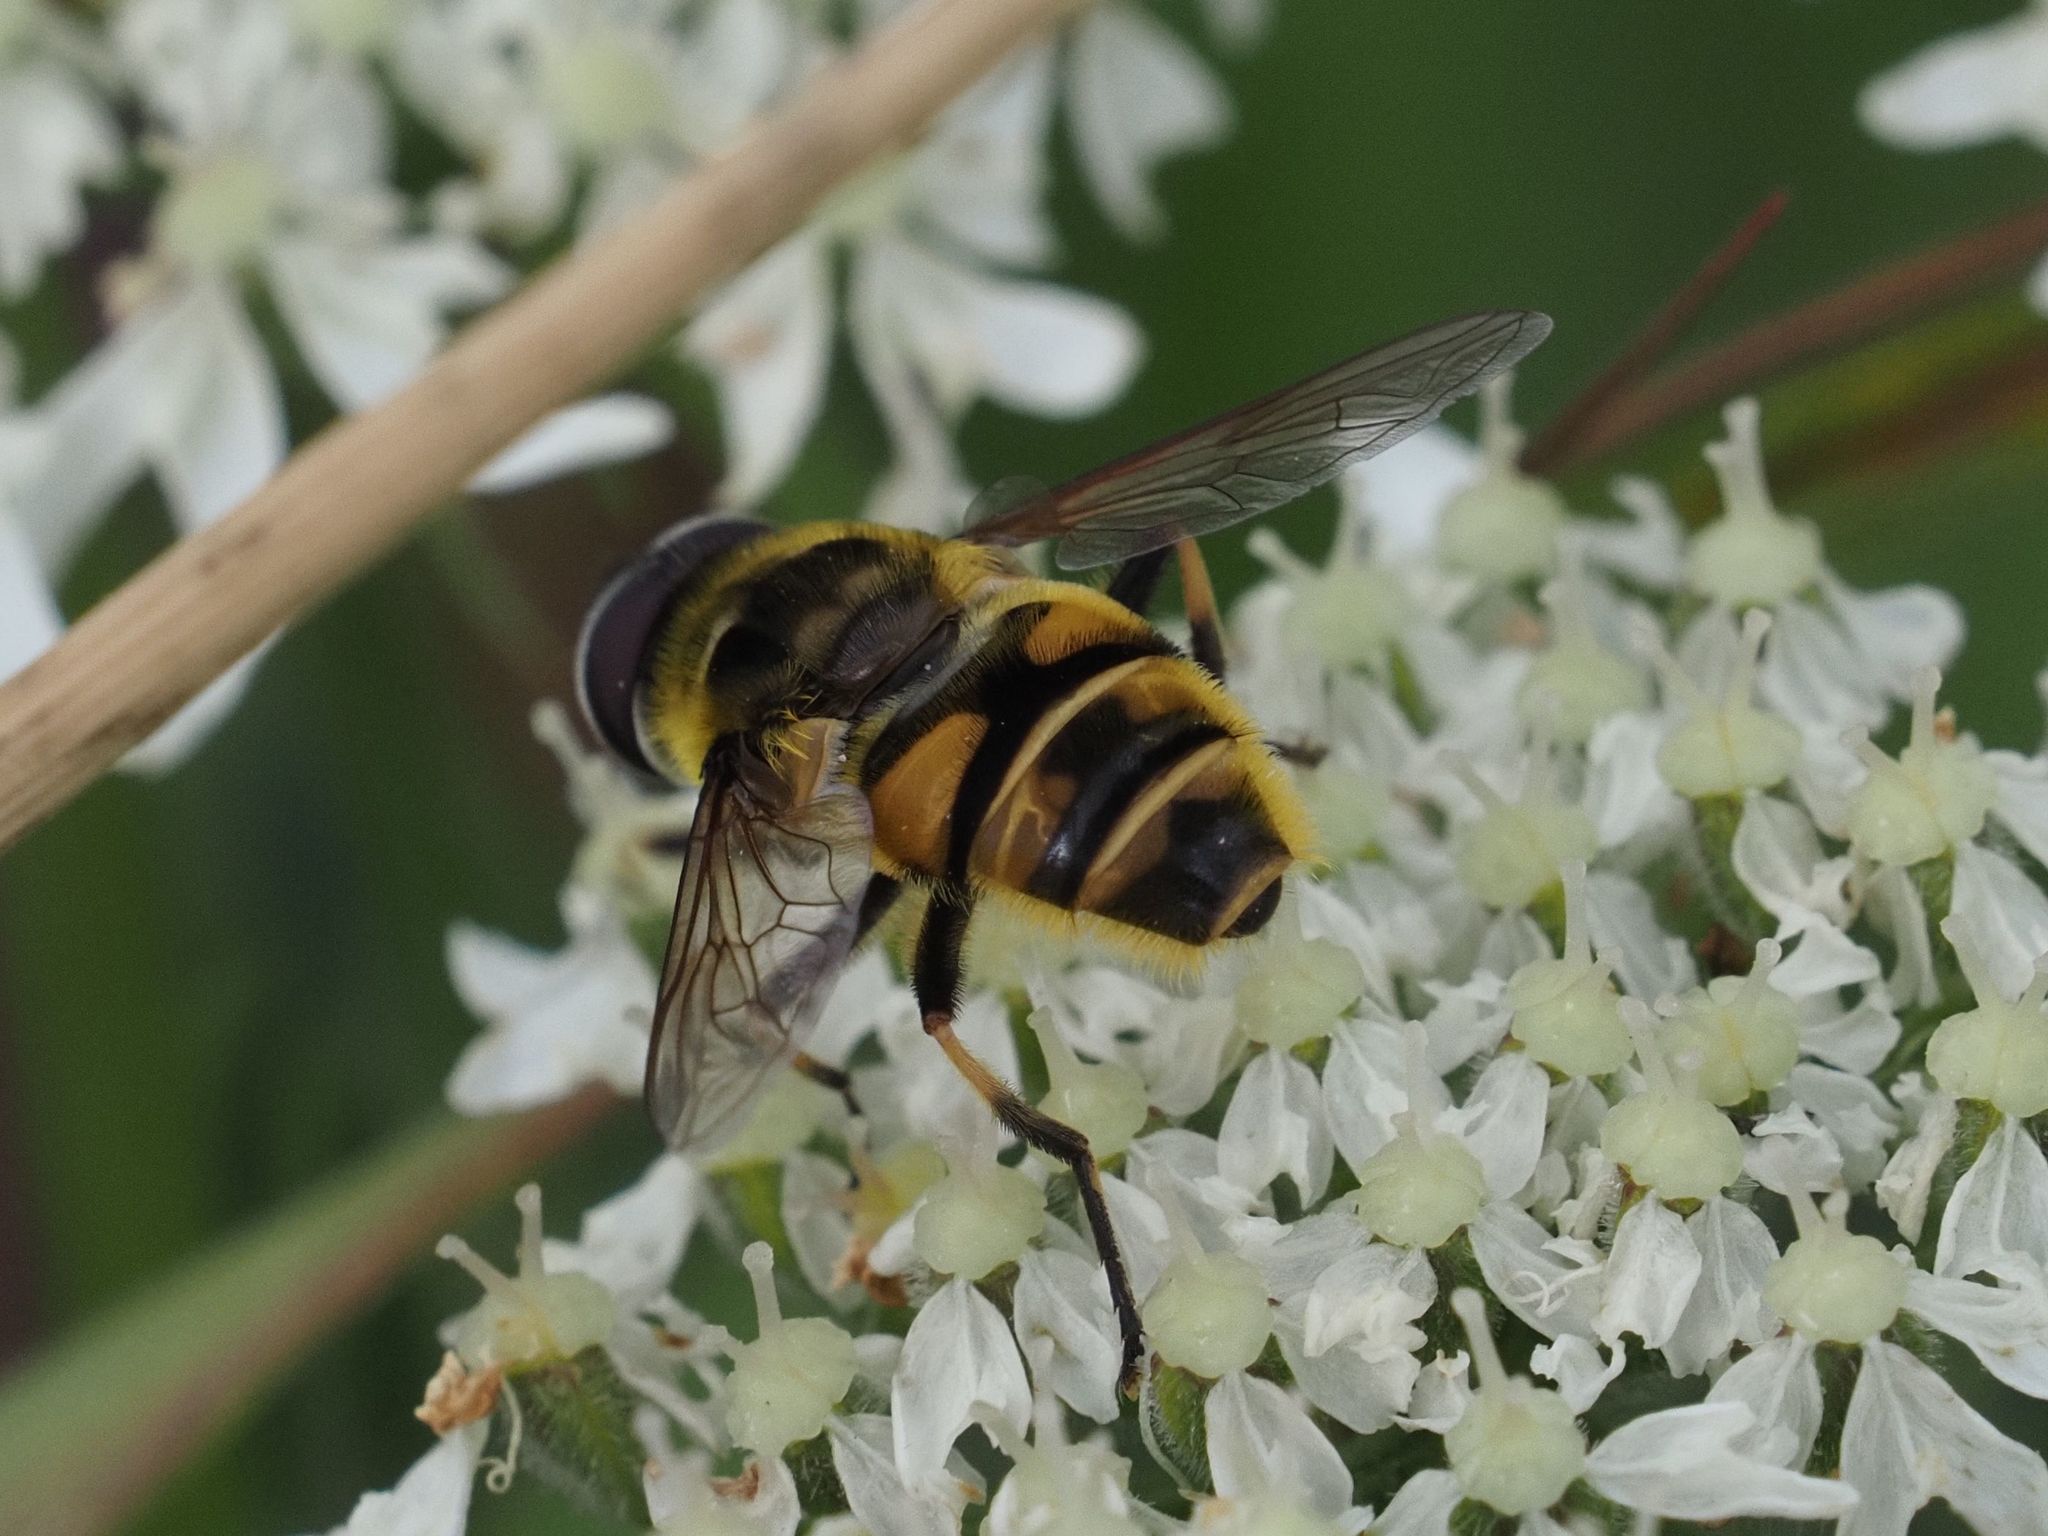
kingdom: Animalia
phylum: Arthropoda
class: Insecta
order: Diptera
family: Syrphidae
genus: Myathropa
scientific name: Myathropa florea
